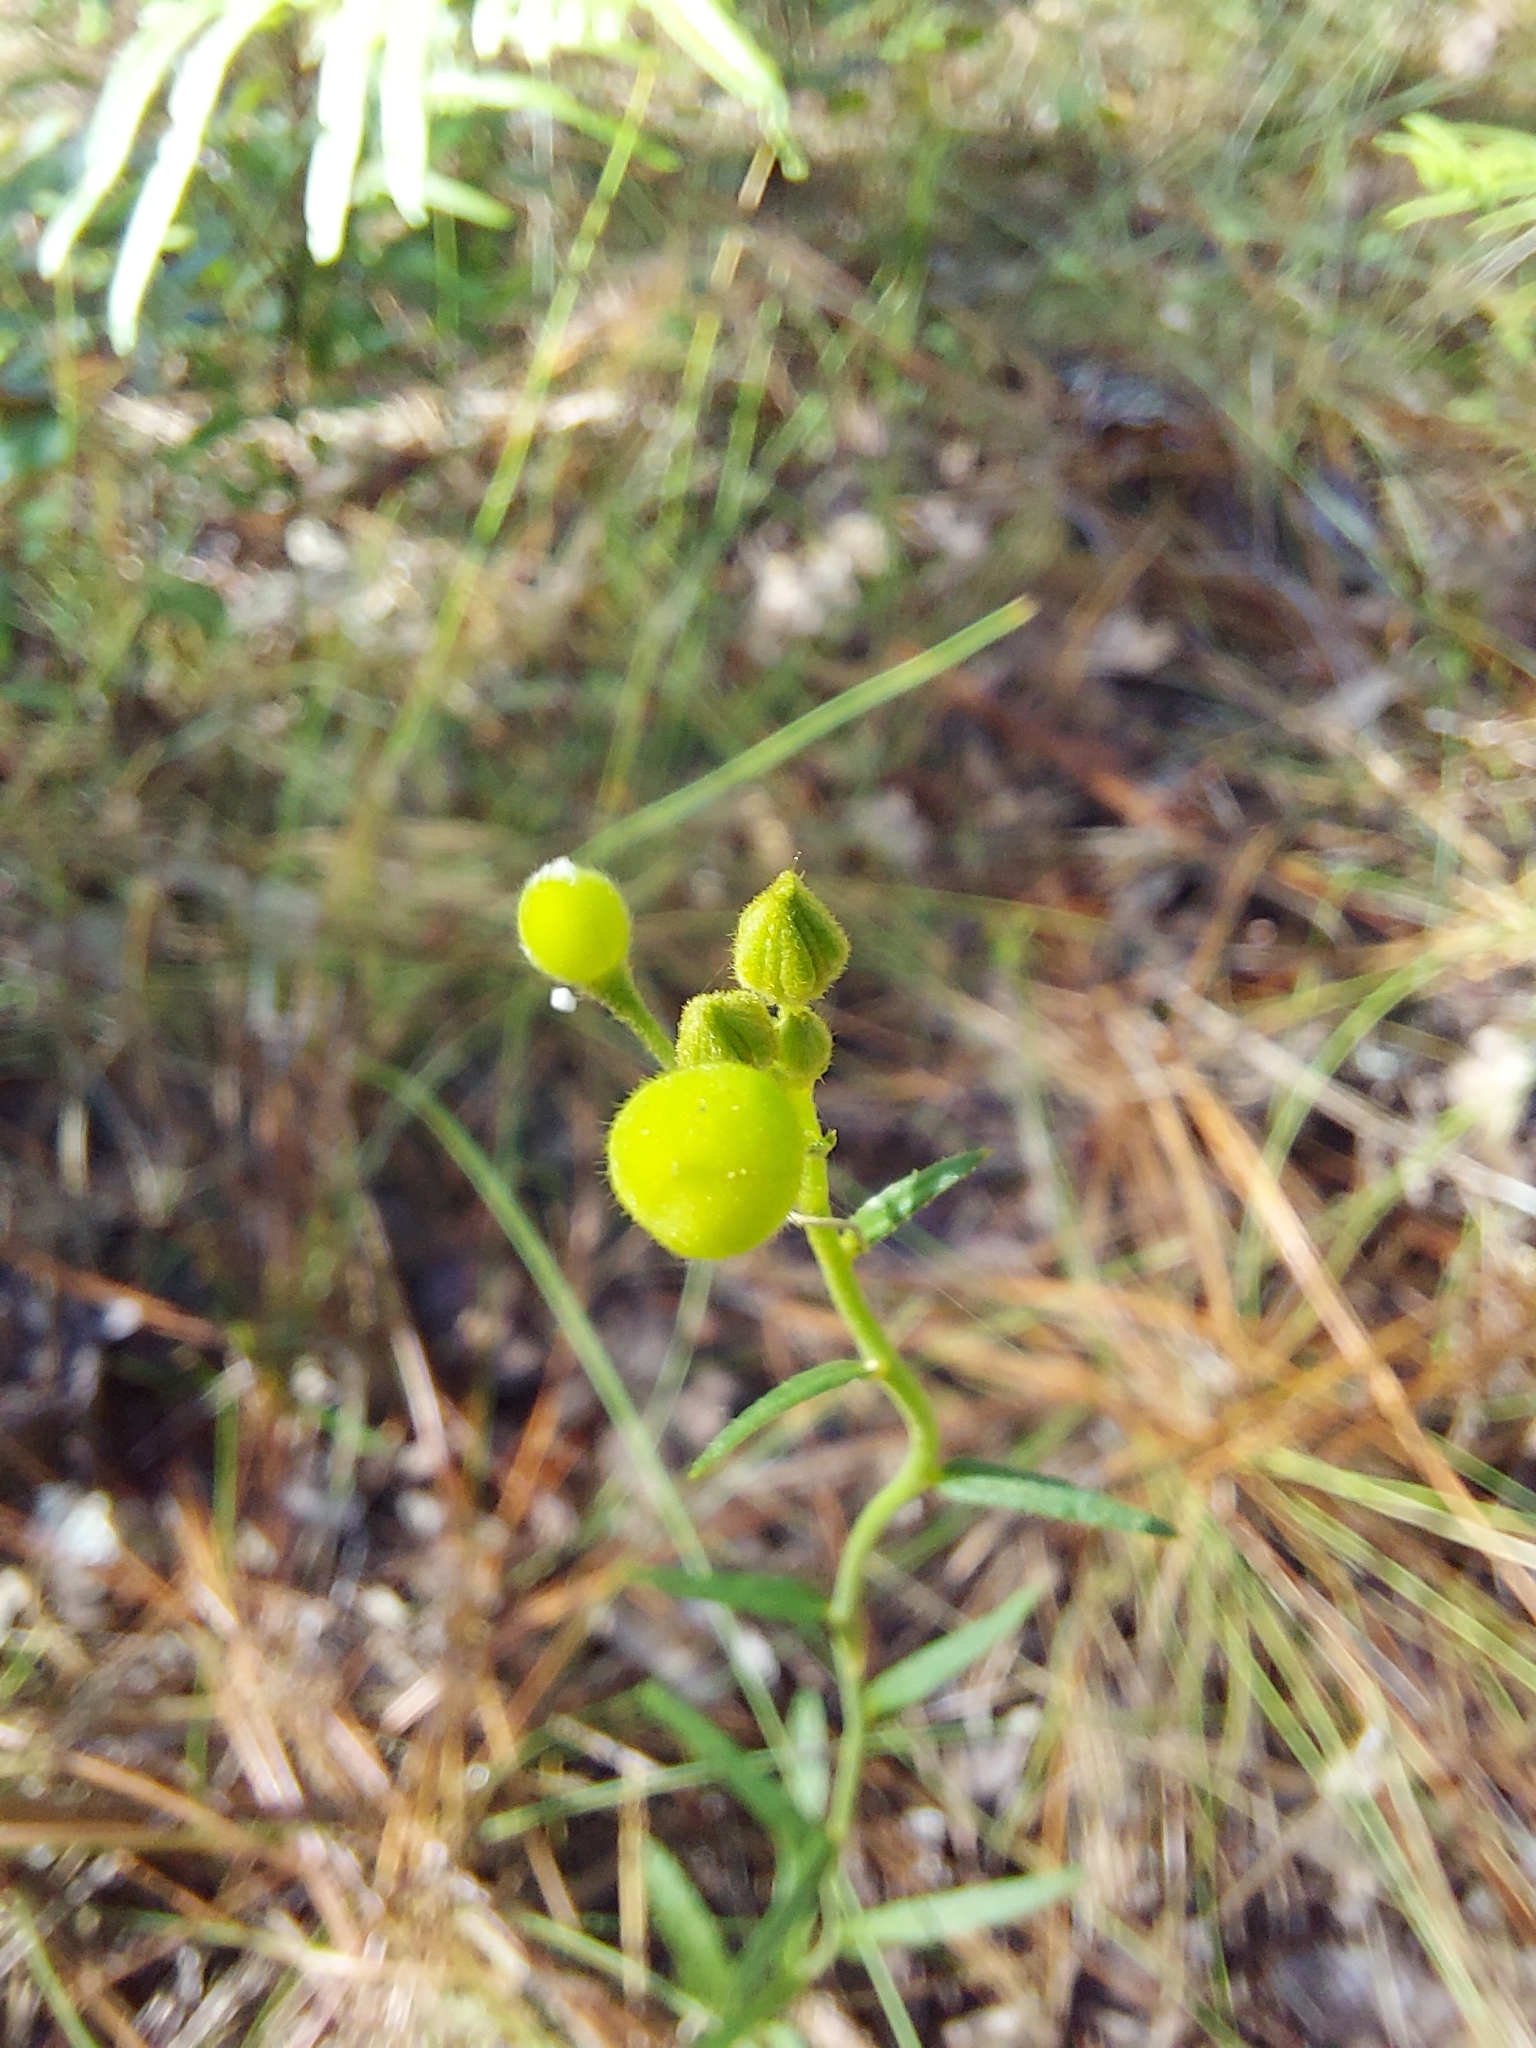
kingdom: Plantae
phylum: Tracheophyta
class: Magnoliopsida
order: Malpighiales
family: Turneraceae
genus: Piriqueta
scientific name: Piriqueta cistoides
